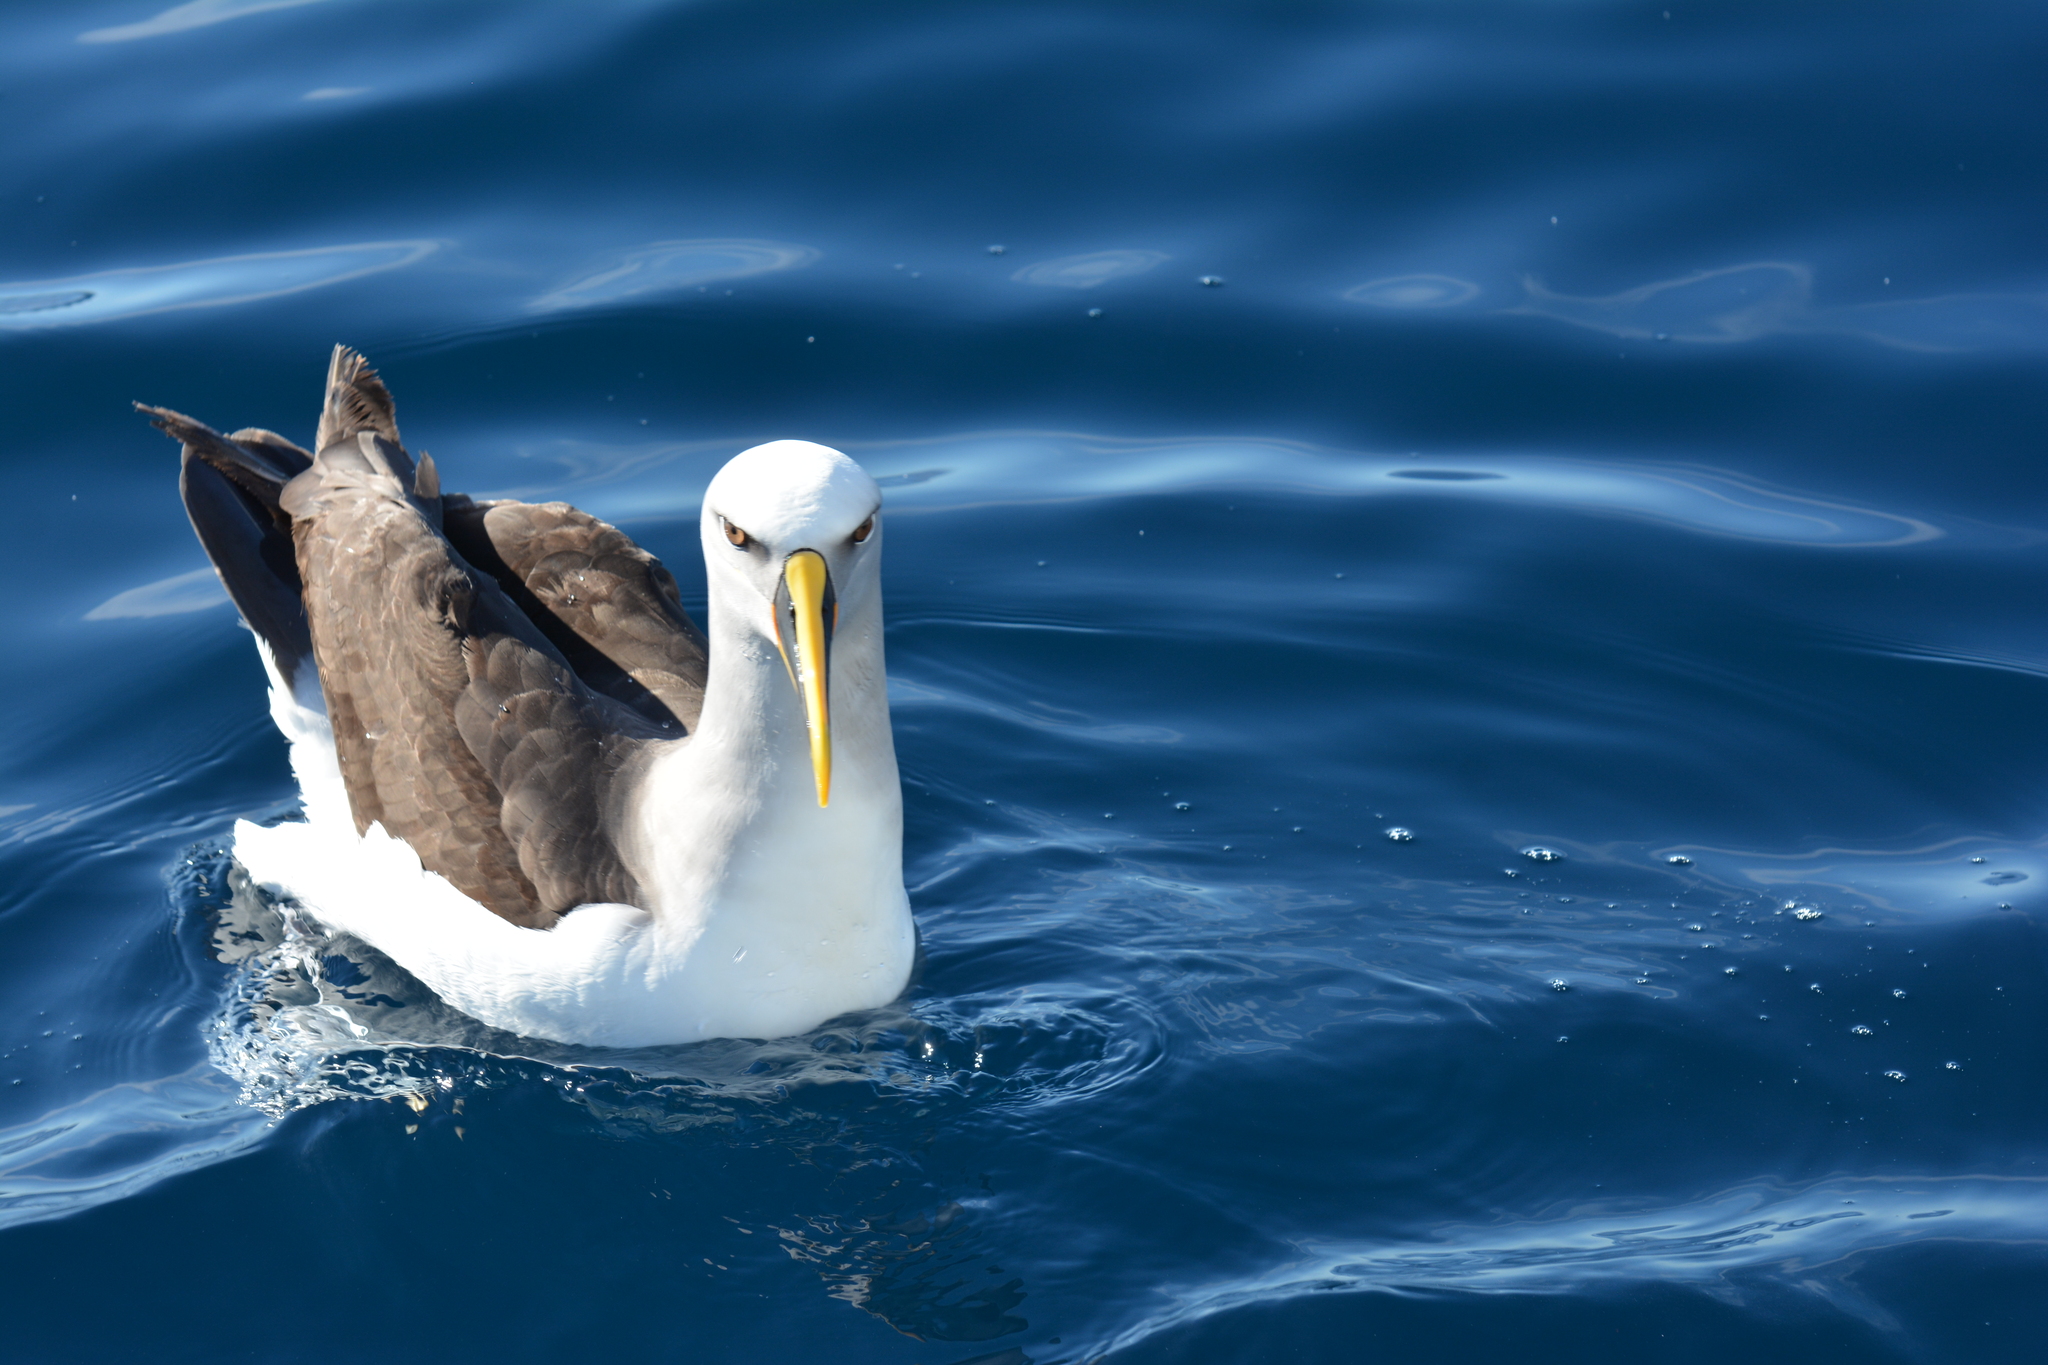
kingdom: Animalia
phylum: Chordata
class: Aves
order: Procellariiformes
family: Diomedeidae
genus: Thalassarche
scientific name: Thalassarche bulleri
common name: Buller's albatross
